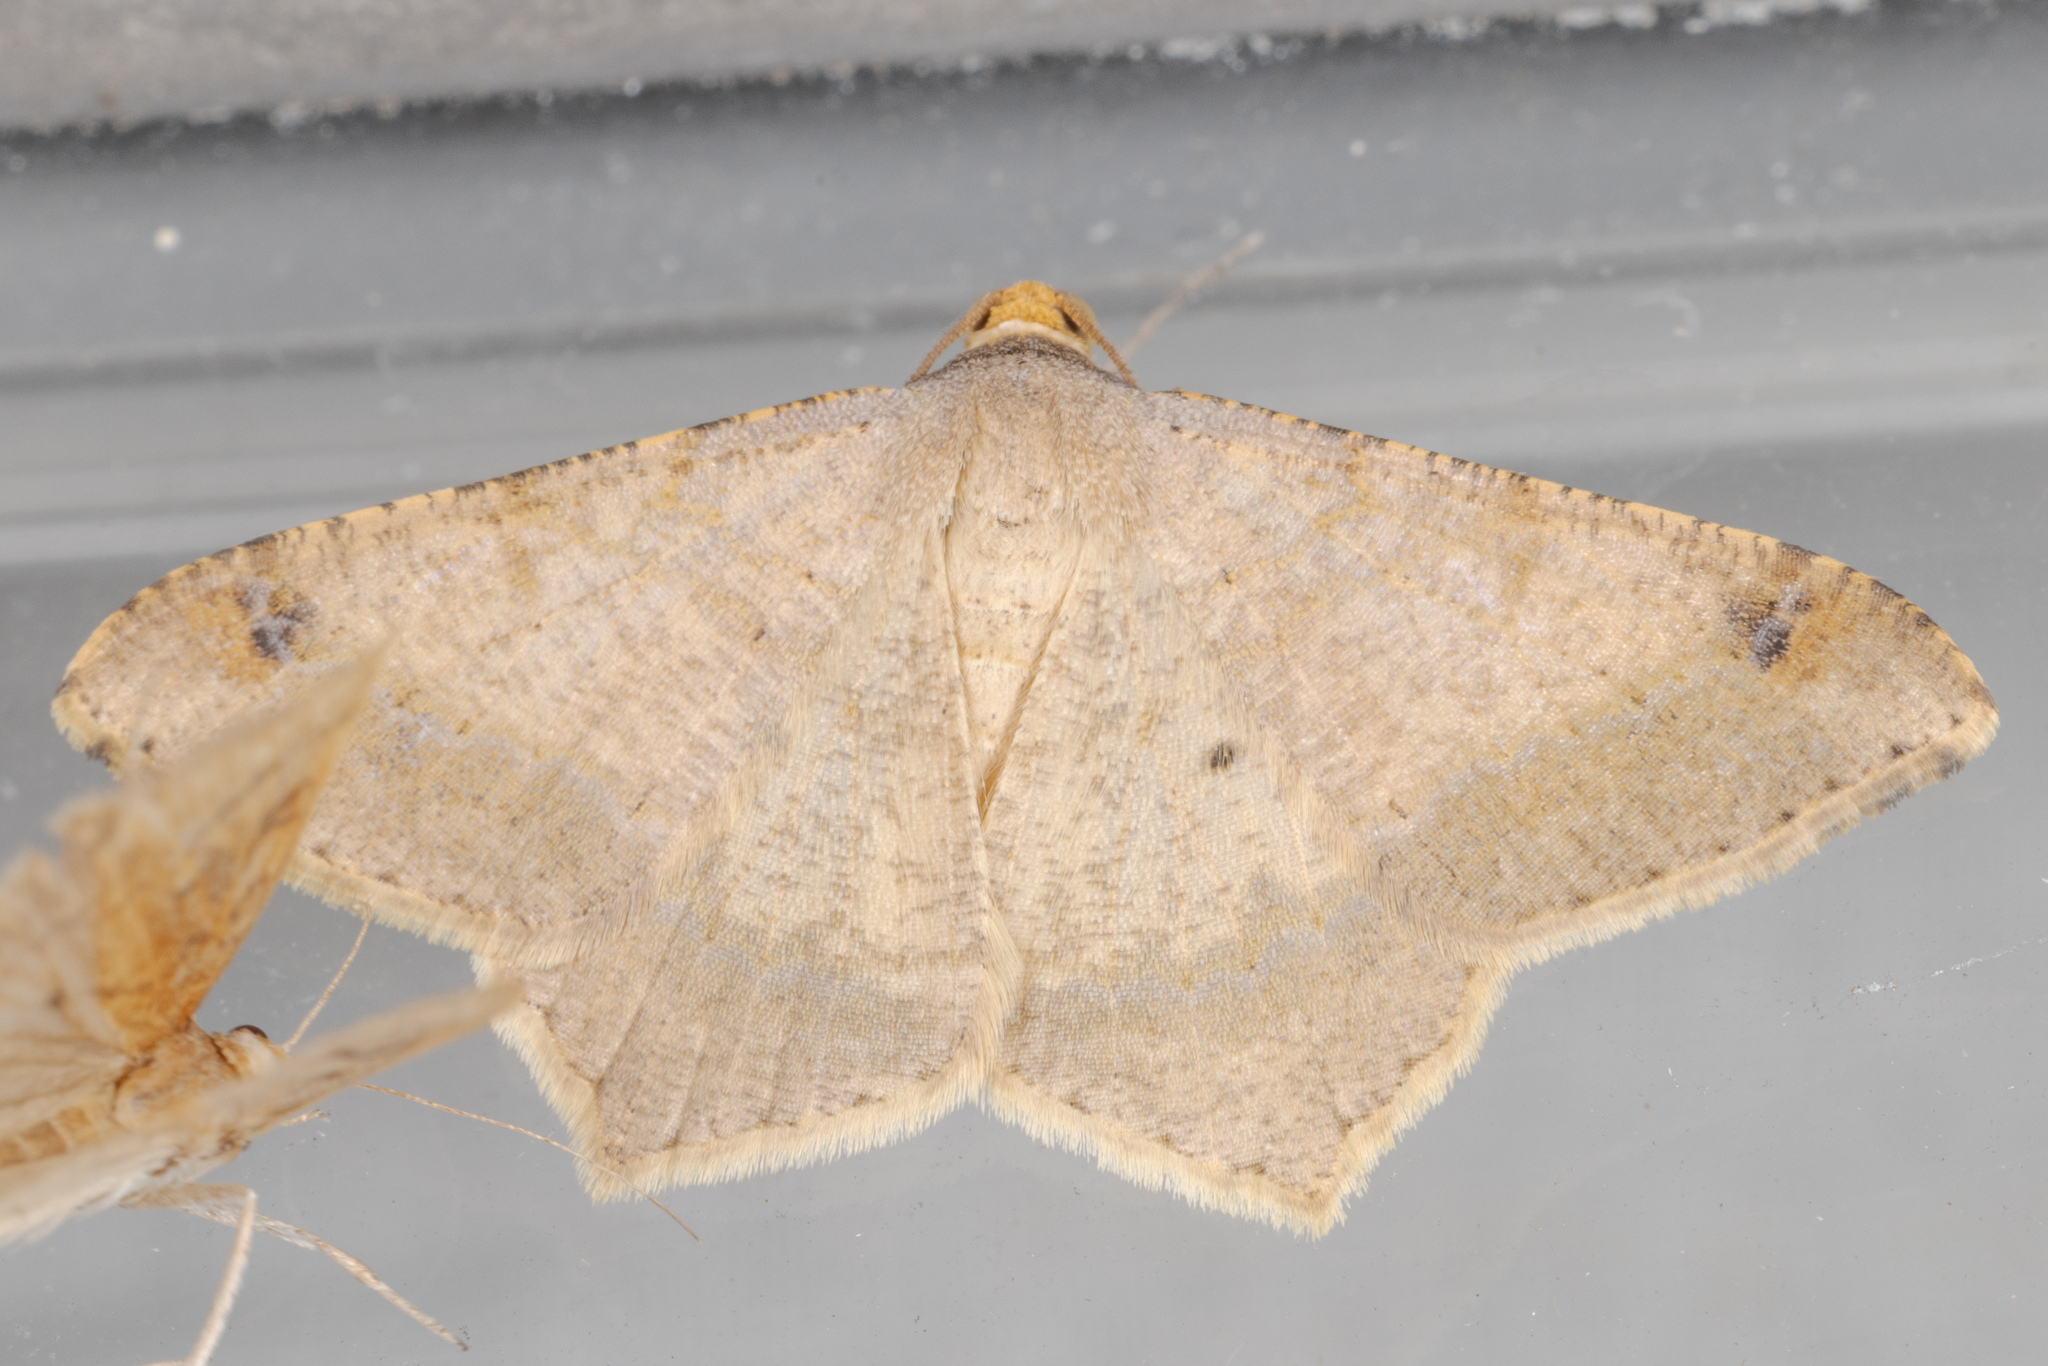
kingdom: Animalia
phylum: Arthropoda
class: Insecta
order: Lepidoptera
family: Geometridae
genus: Macaria
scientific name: Macaria abydata
